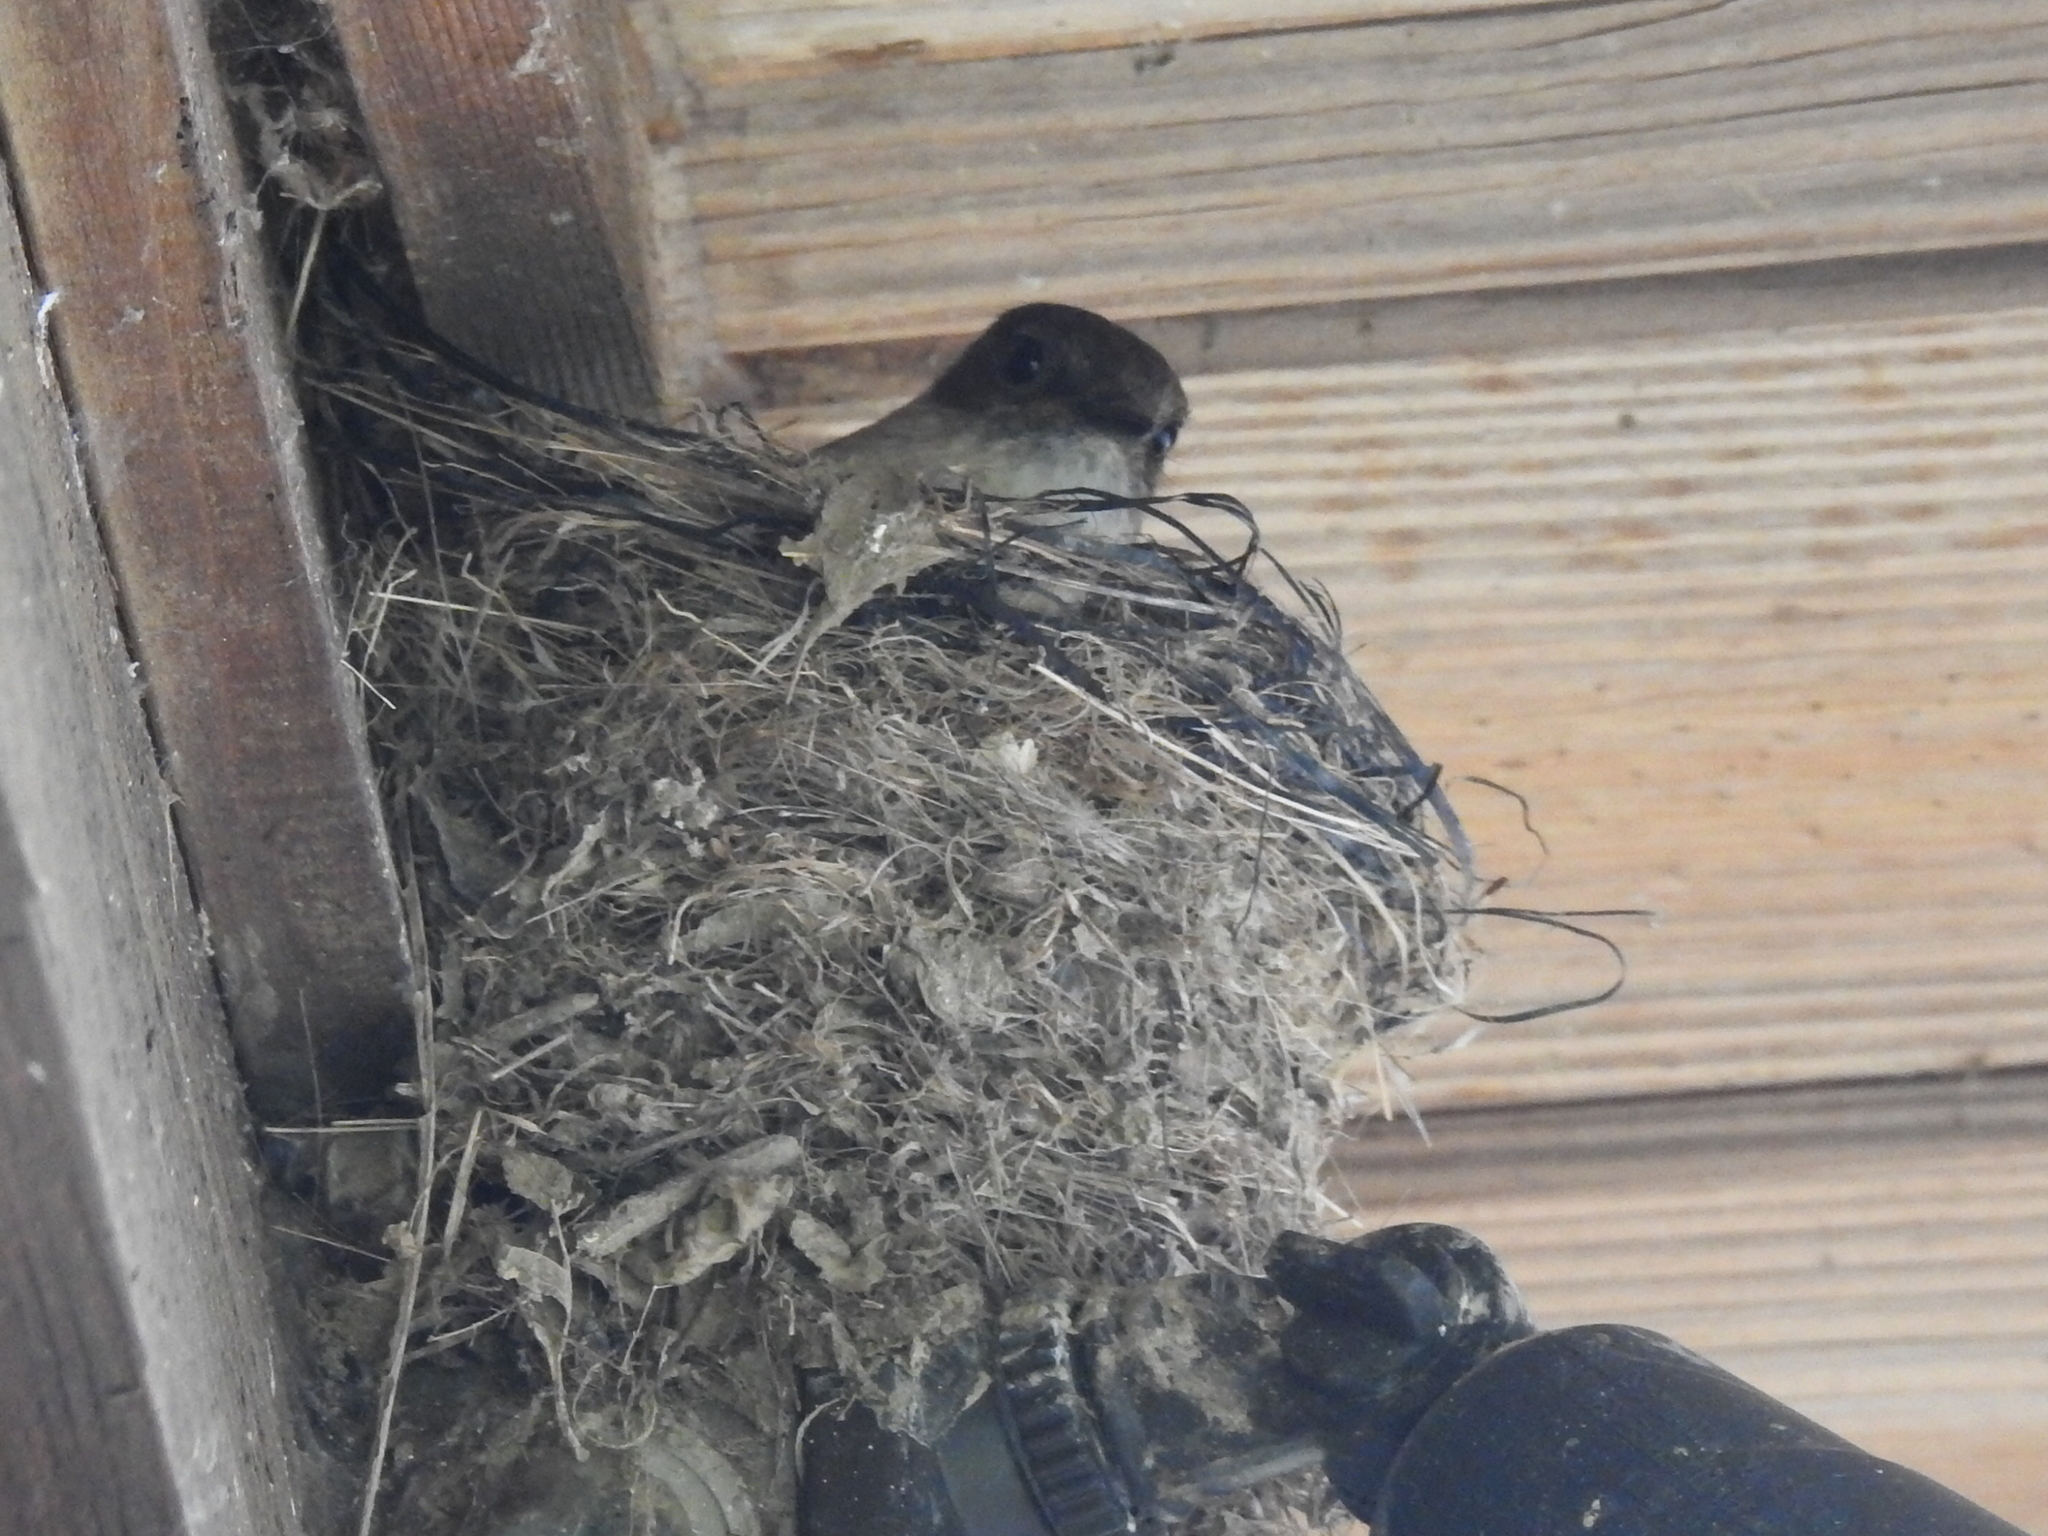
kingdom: Animalia
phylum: Chordata
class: Aves
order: Passeriformes
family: Tyrannidae
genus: Sayornis
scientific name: Sayornis phoebe
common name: Eastern phoebe
